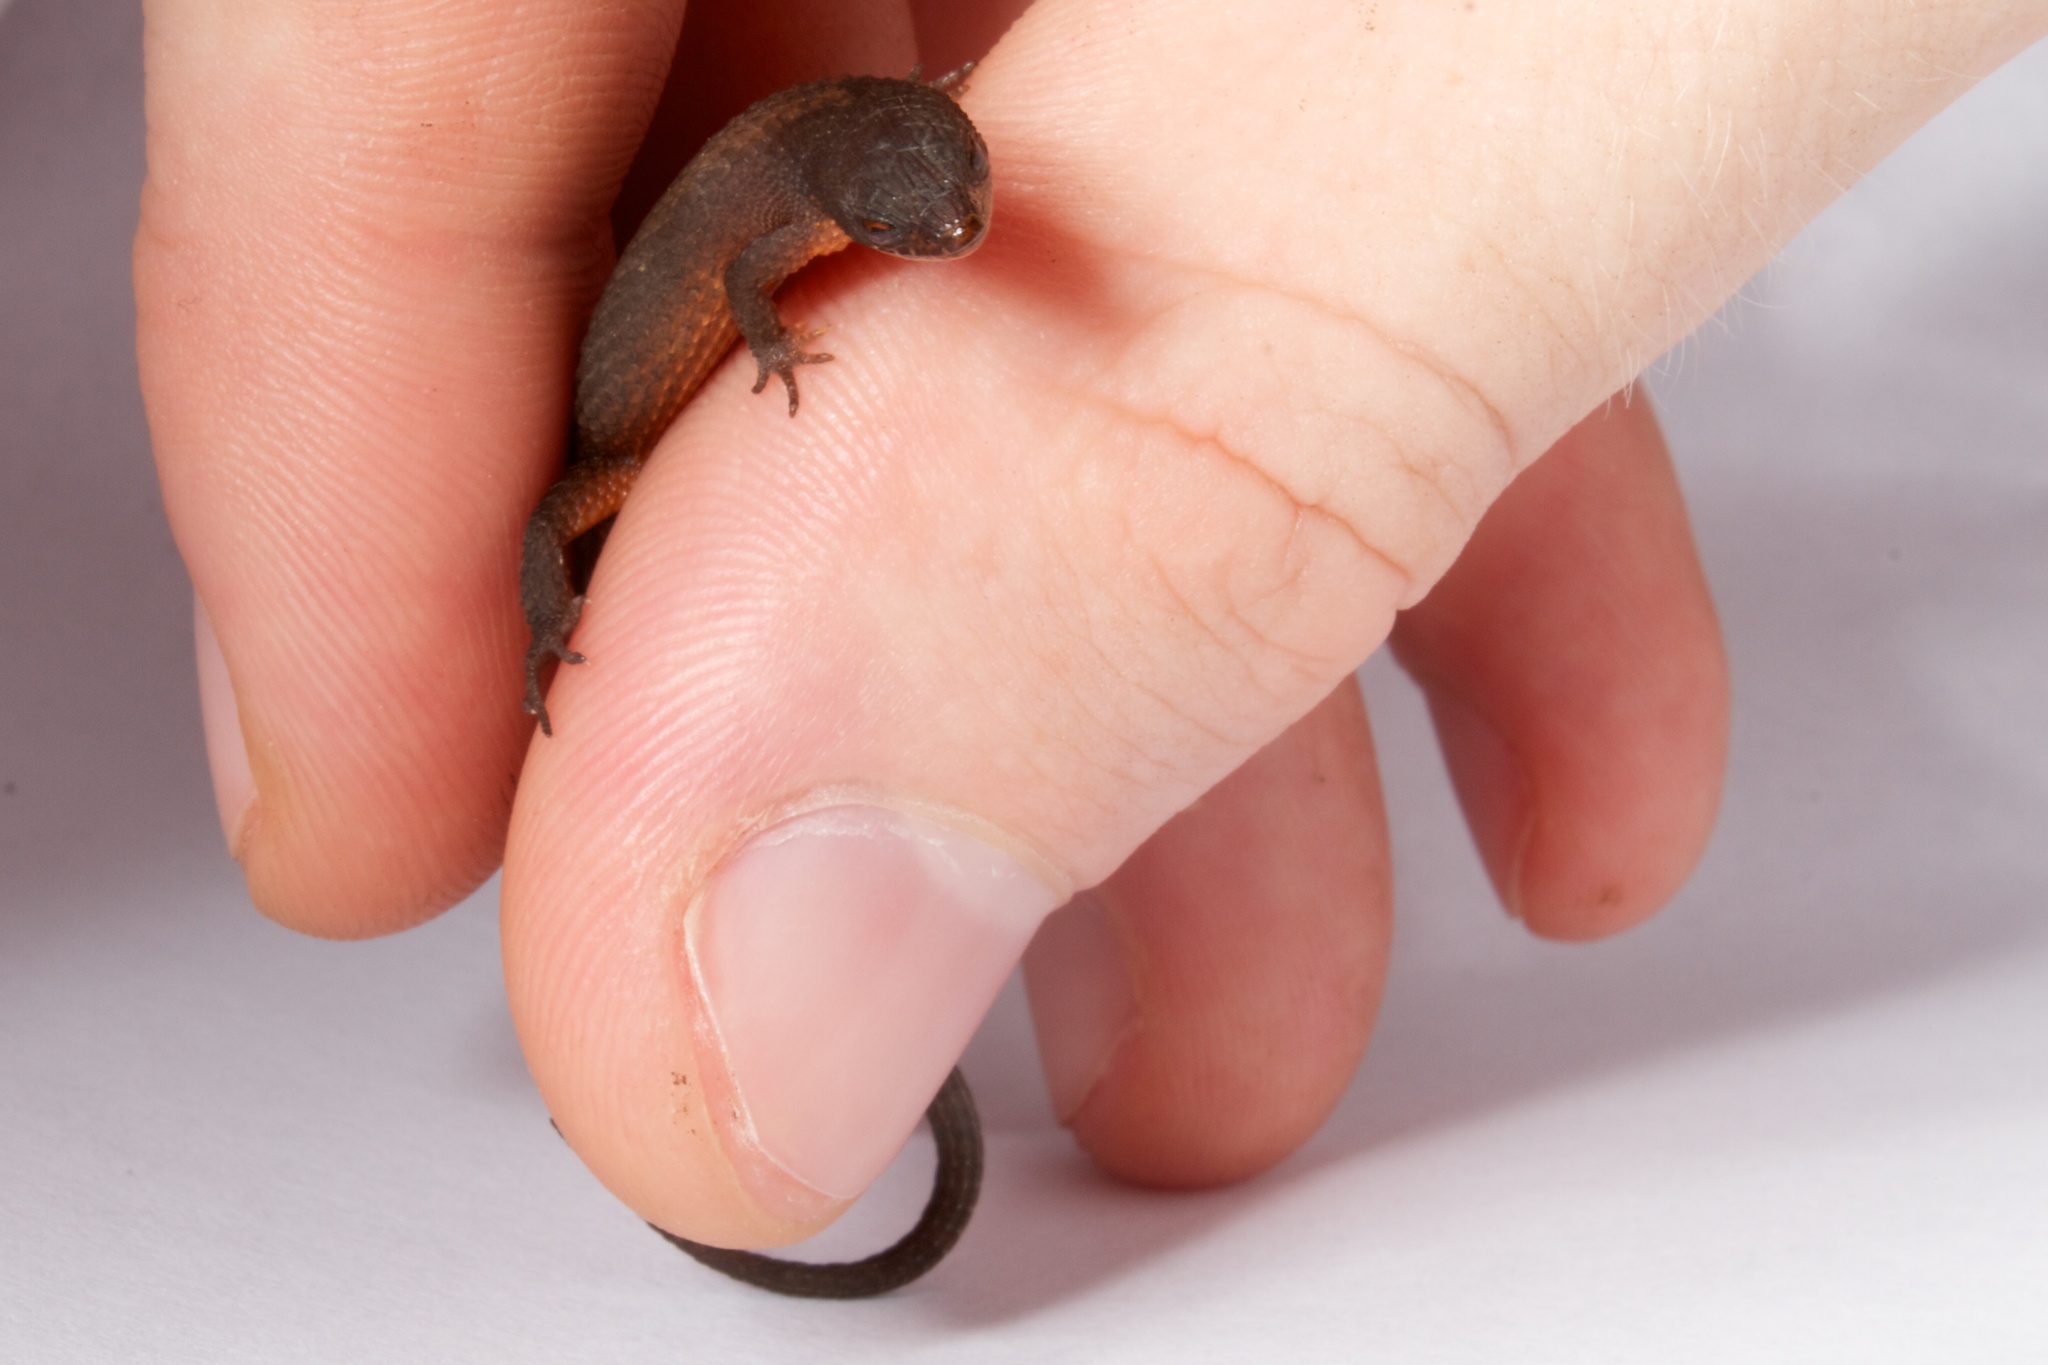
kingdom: Animalia
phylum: Chordata
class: Squamata
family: Gymnophthalmidae
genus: Loxopholis
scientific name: Loxopholis southi
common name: Northern spectacled lizard
